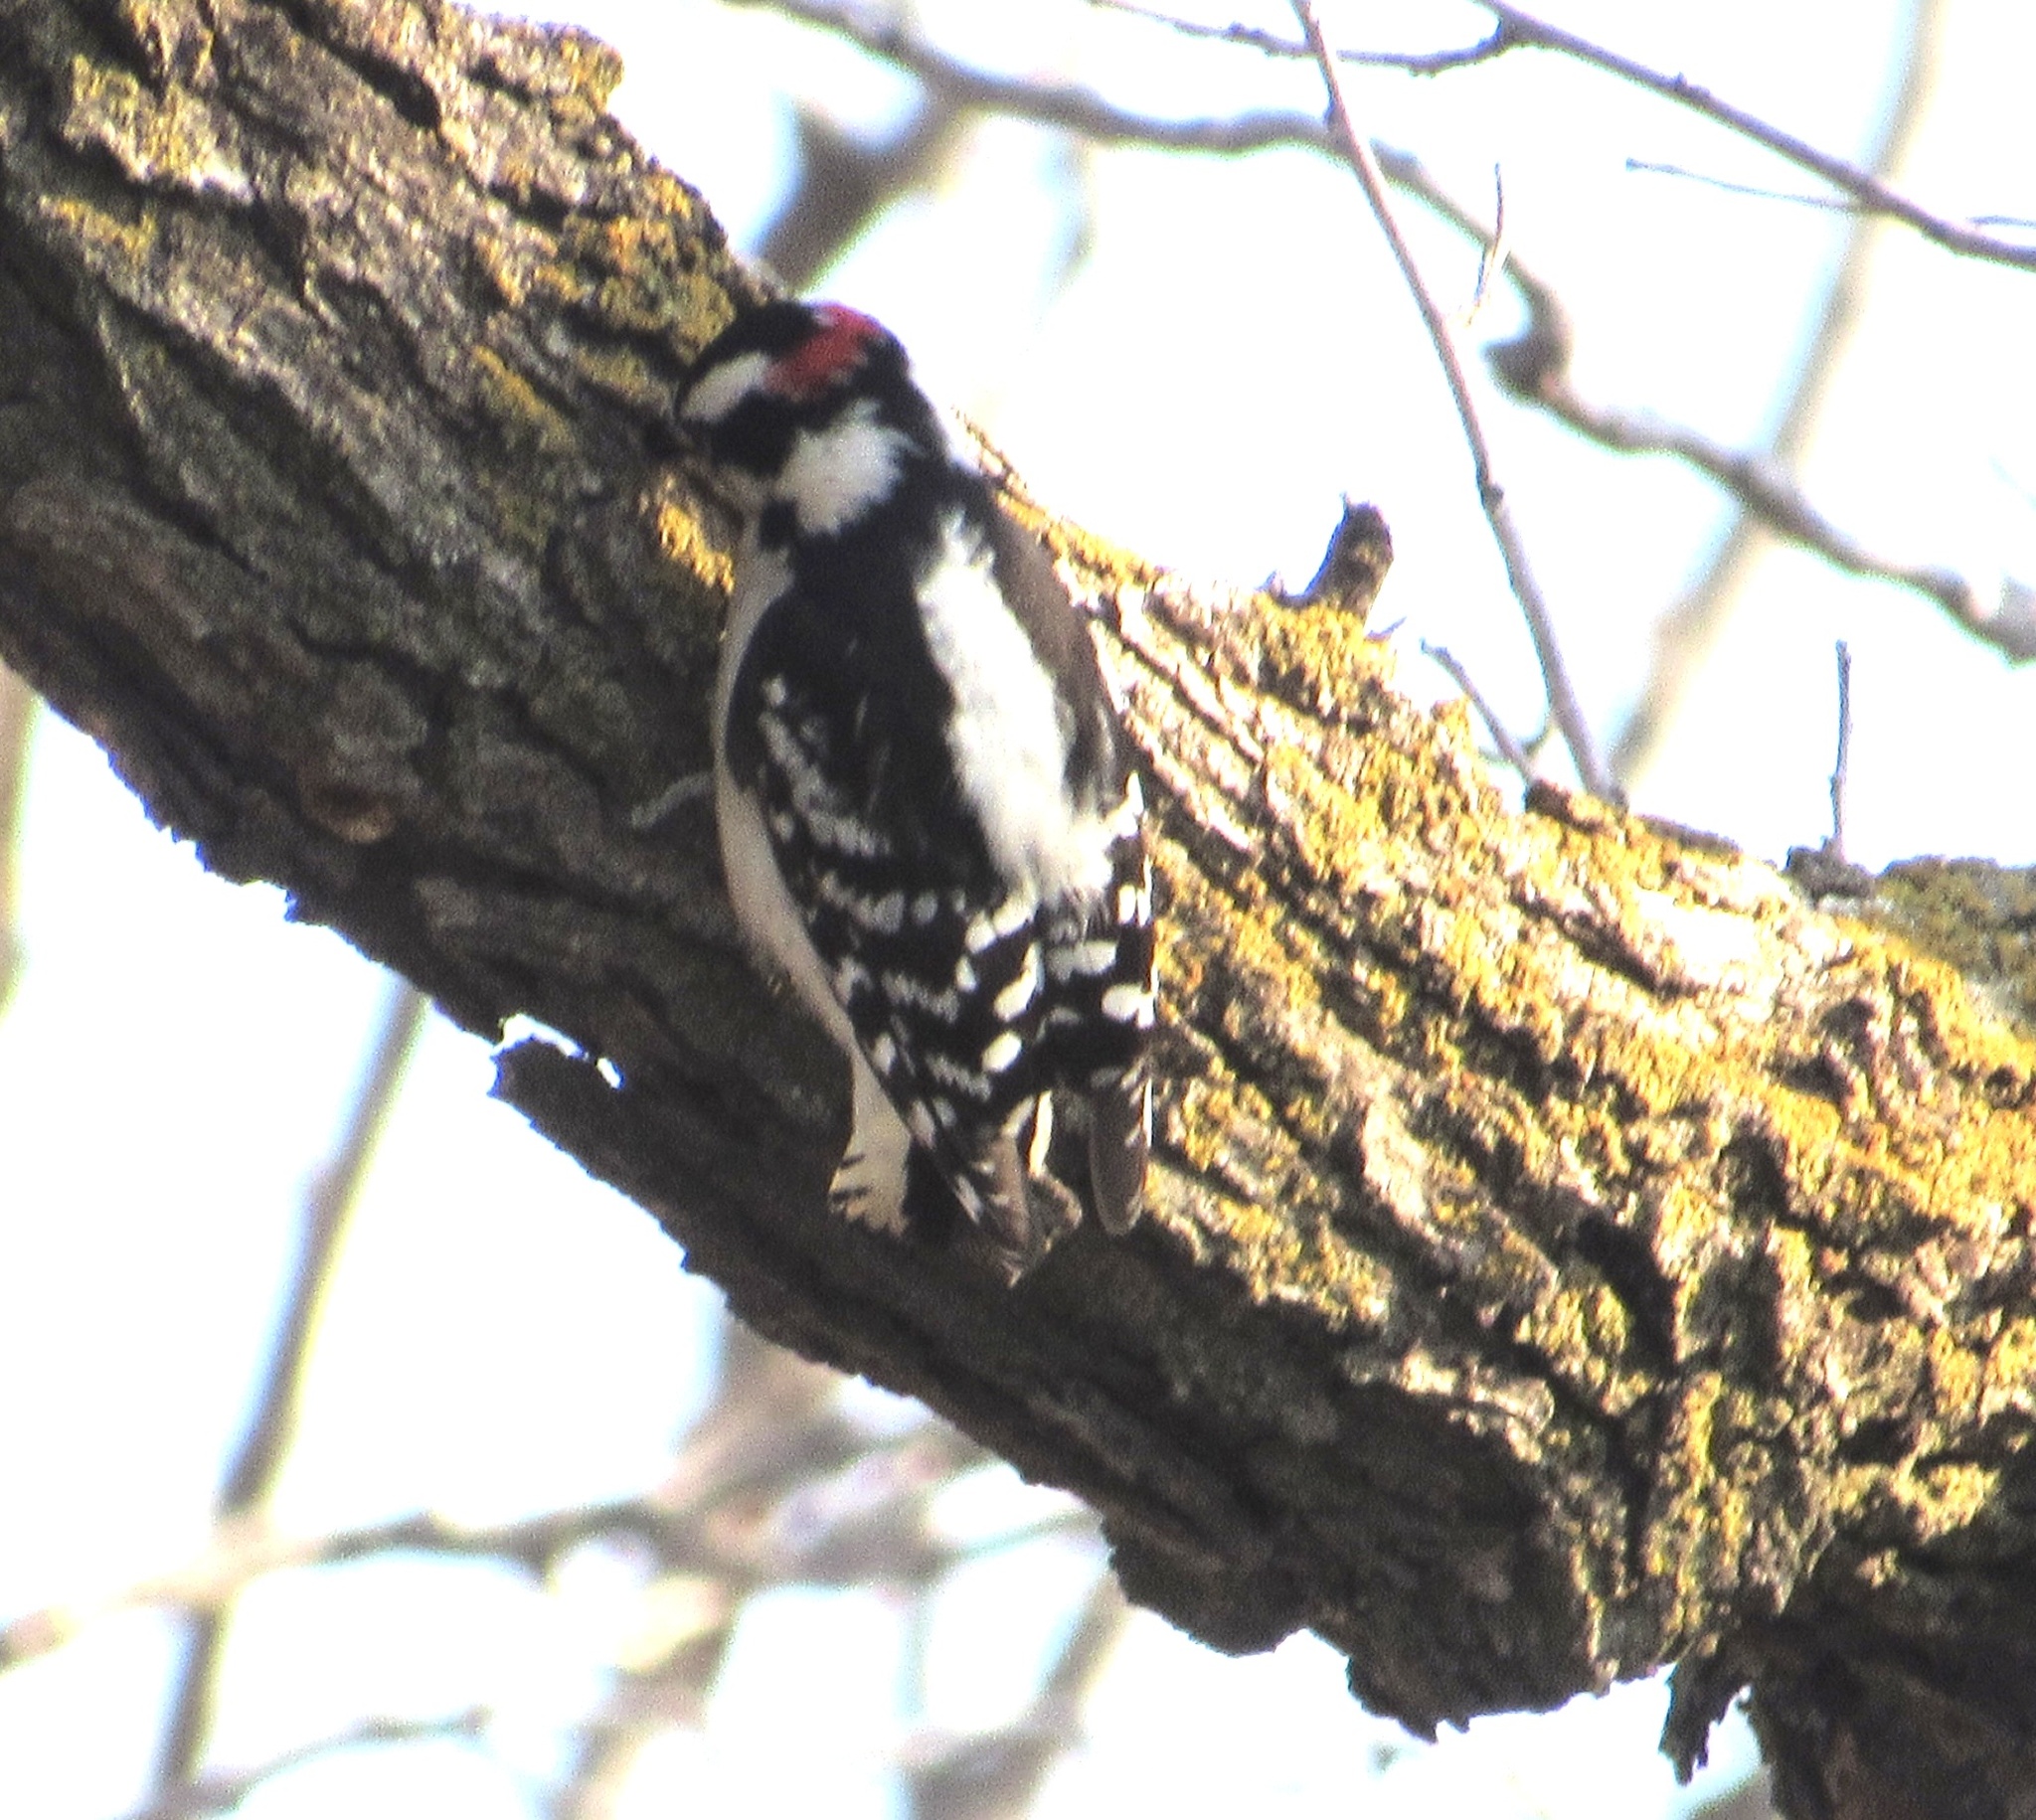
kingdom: Animalia
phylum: Chordata
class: Aves
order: Piciformes
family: Picidae
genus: Dryobates
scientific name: Dryobates pubescens
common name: Downy woodpecker
